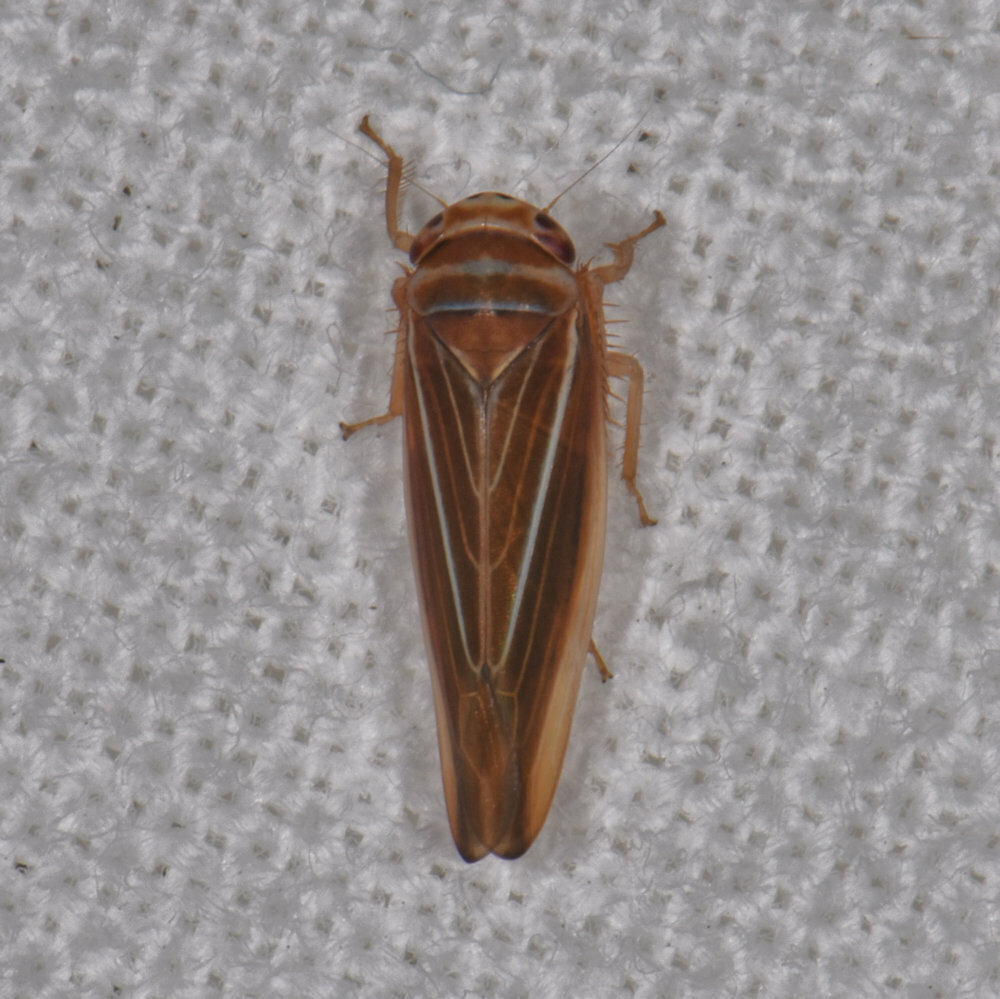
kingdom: Animalia
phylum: Arthropoda
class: Insecta
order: Hemiptera
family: Cicadellidae
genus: Idiodonus
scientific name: Idiodonus kennicotti
